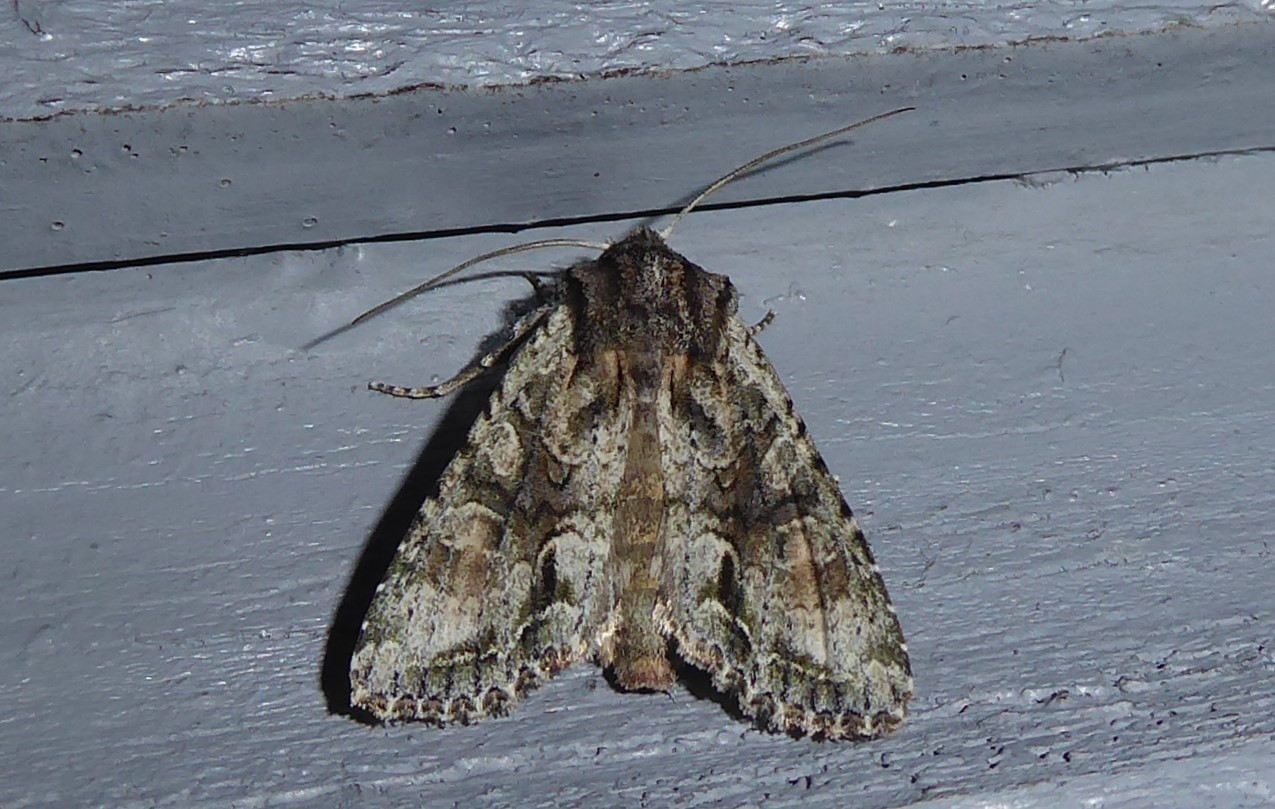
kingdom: Animalia
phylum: Arthropoda
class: Insecta
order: Lepidoptera
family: Noctuidae
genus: Ichneutica
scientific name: Ichneutica mutans
